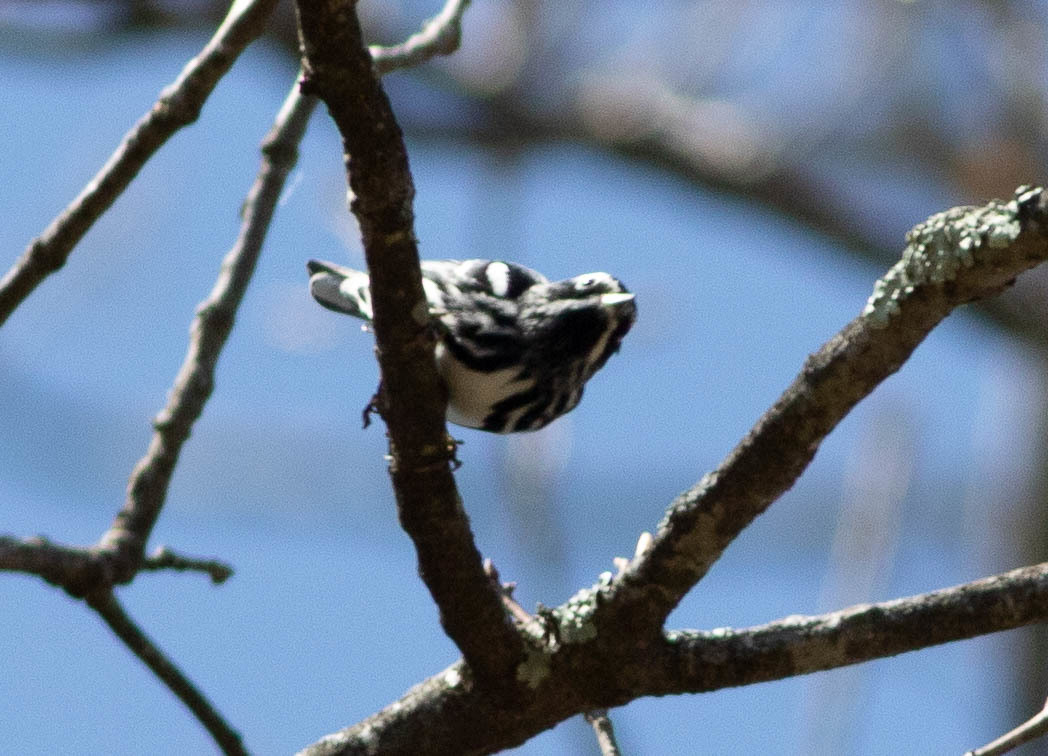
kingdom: Animalia
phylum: Chordata
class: Aves
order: Passeriformes
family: Parulidae
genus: Mniotilta
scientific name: Mniotilta varia
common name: Black-and-white warbler
